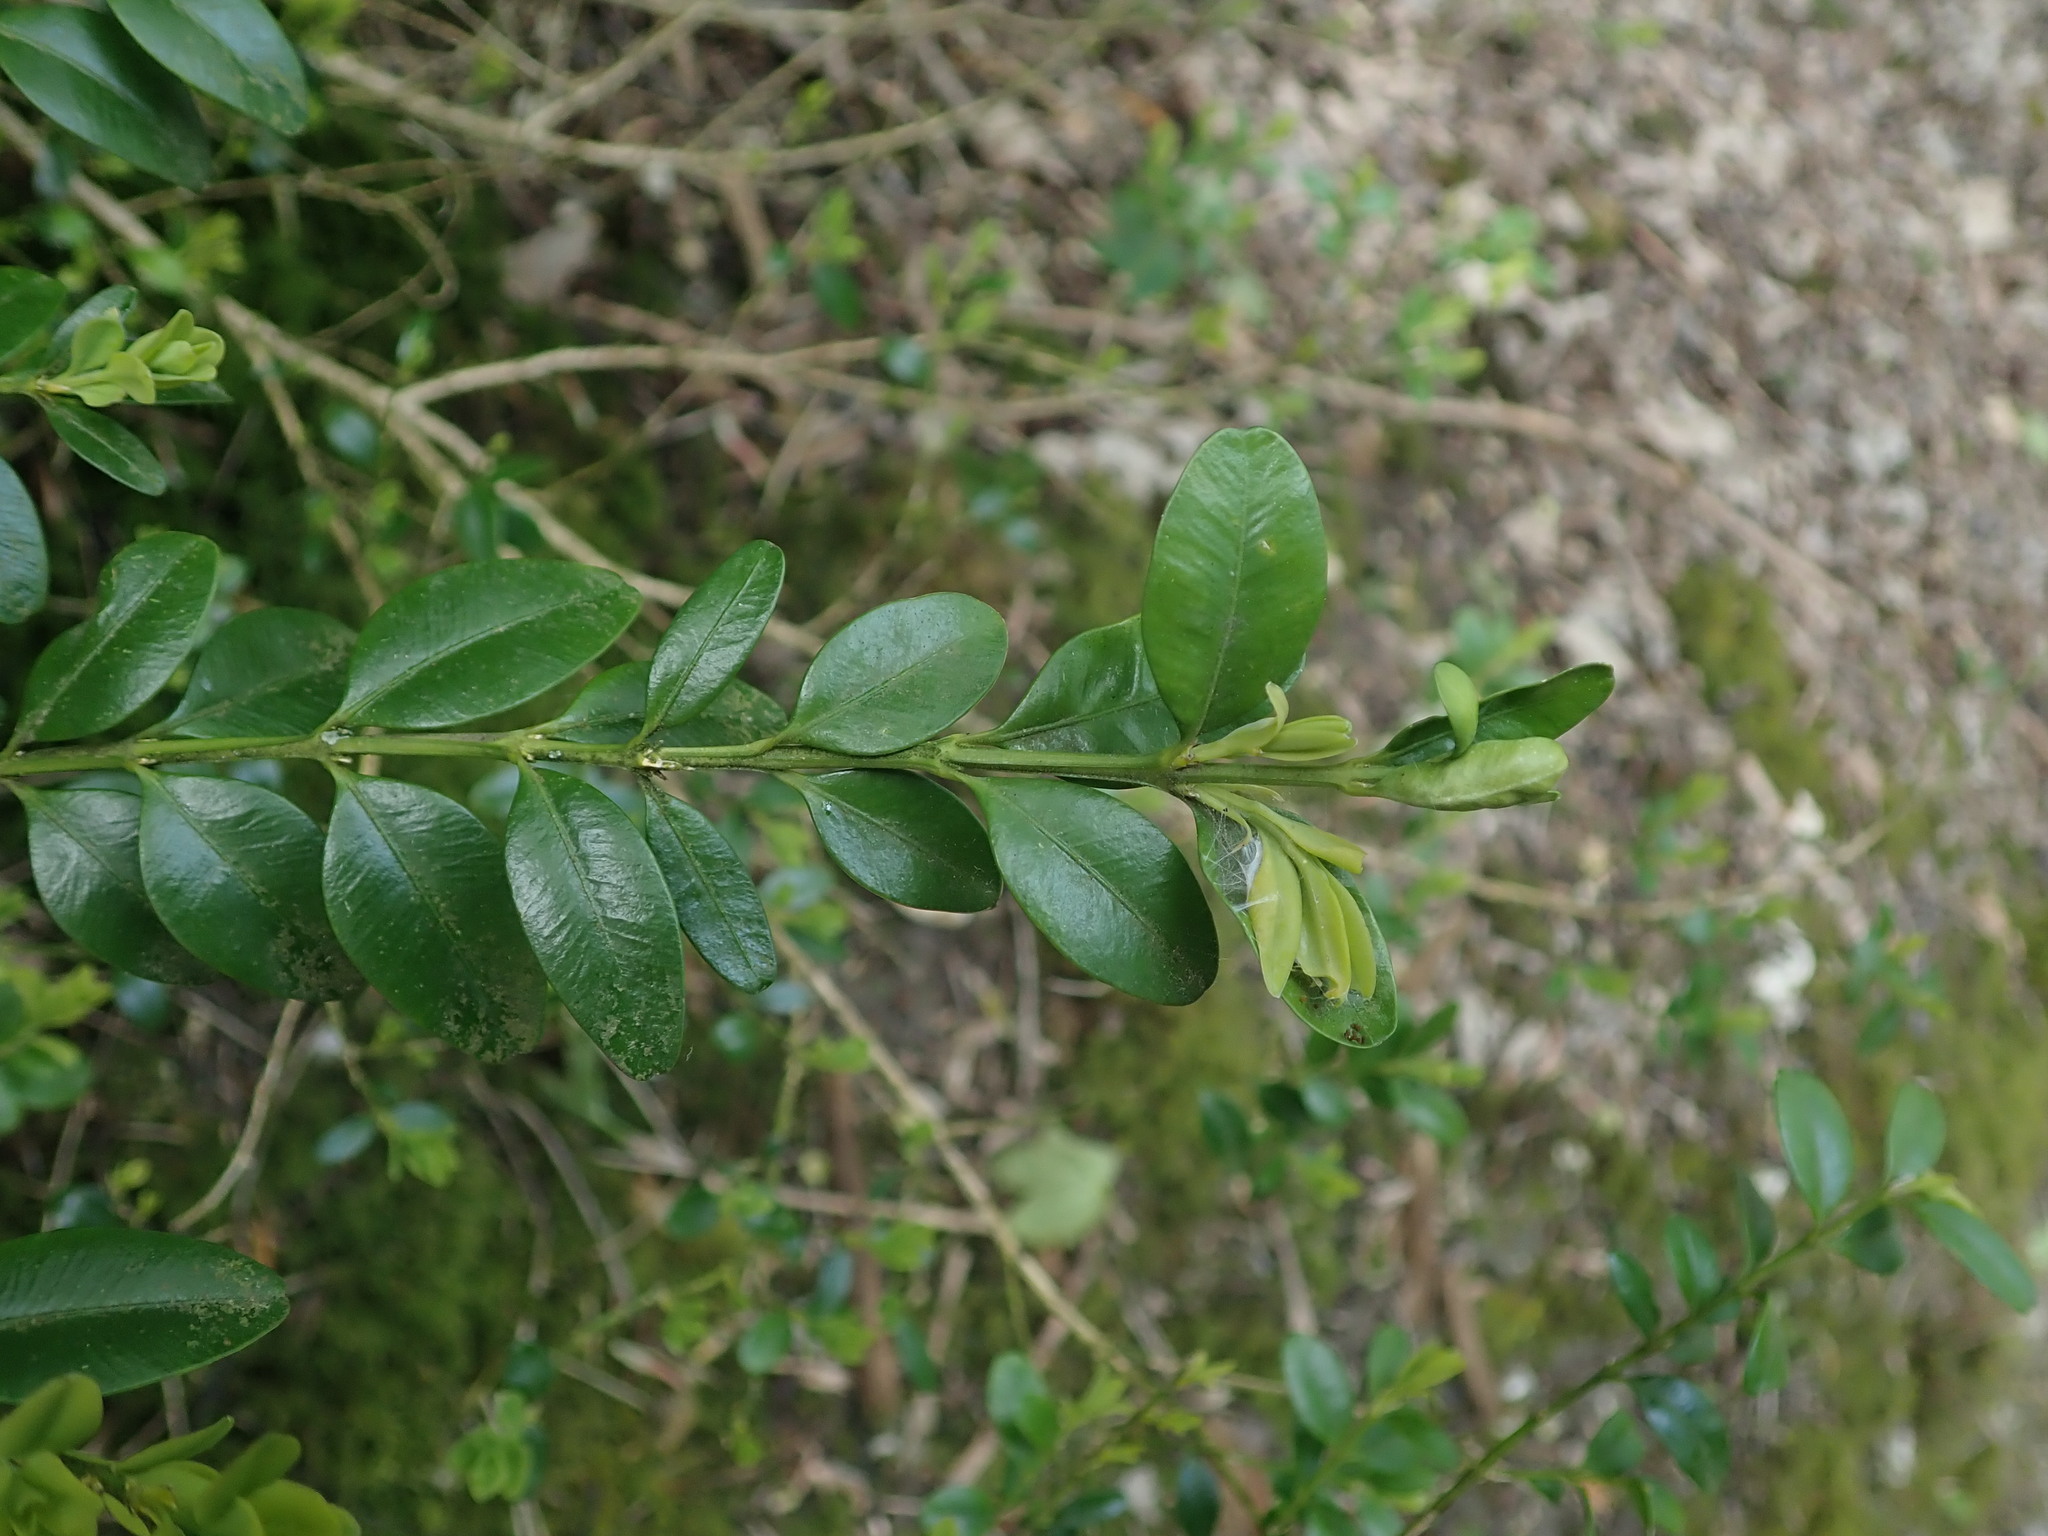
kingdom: Plantae
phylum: Tracheophyta
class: Magnoliopsida
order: Buxales
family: Buxaceae
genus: Buxus
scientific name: Buxus sempervirens
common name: Box
